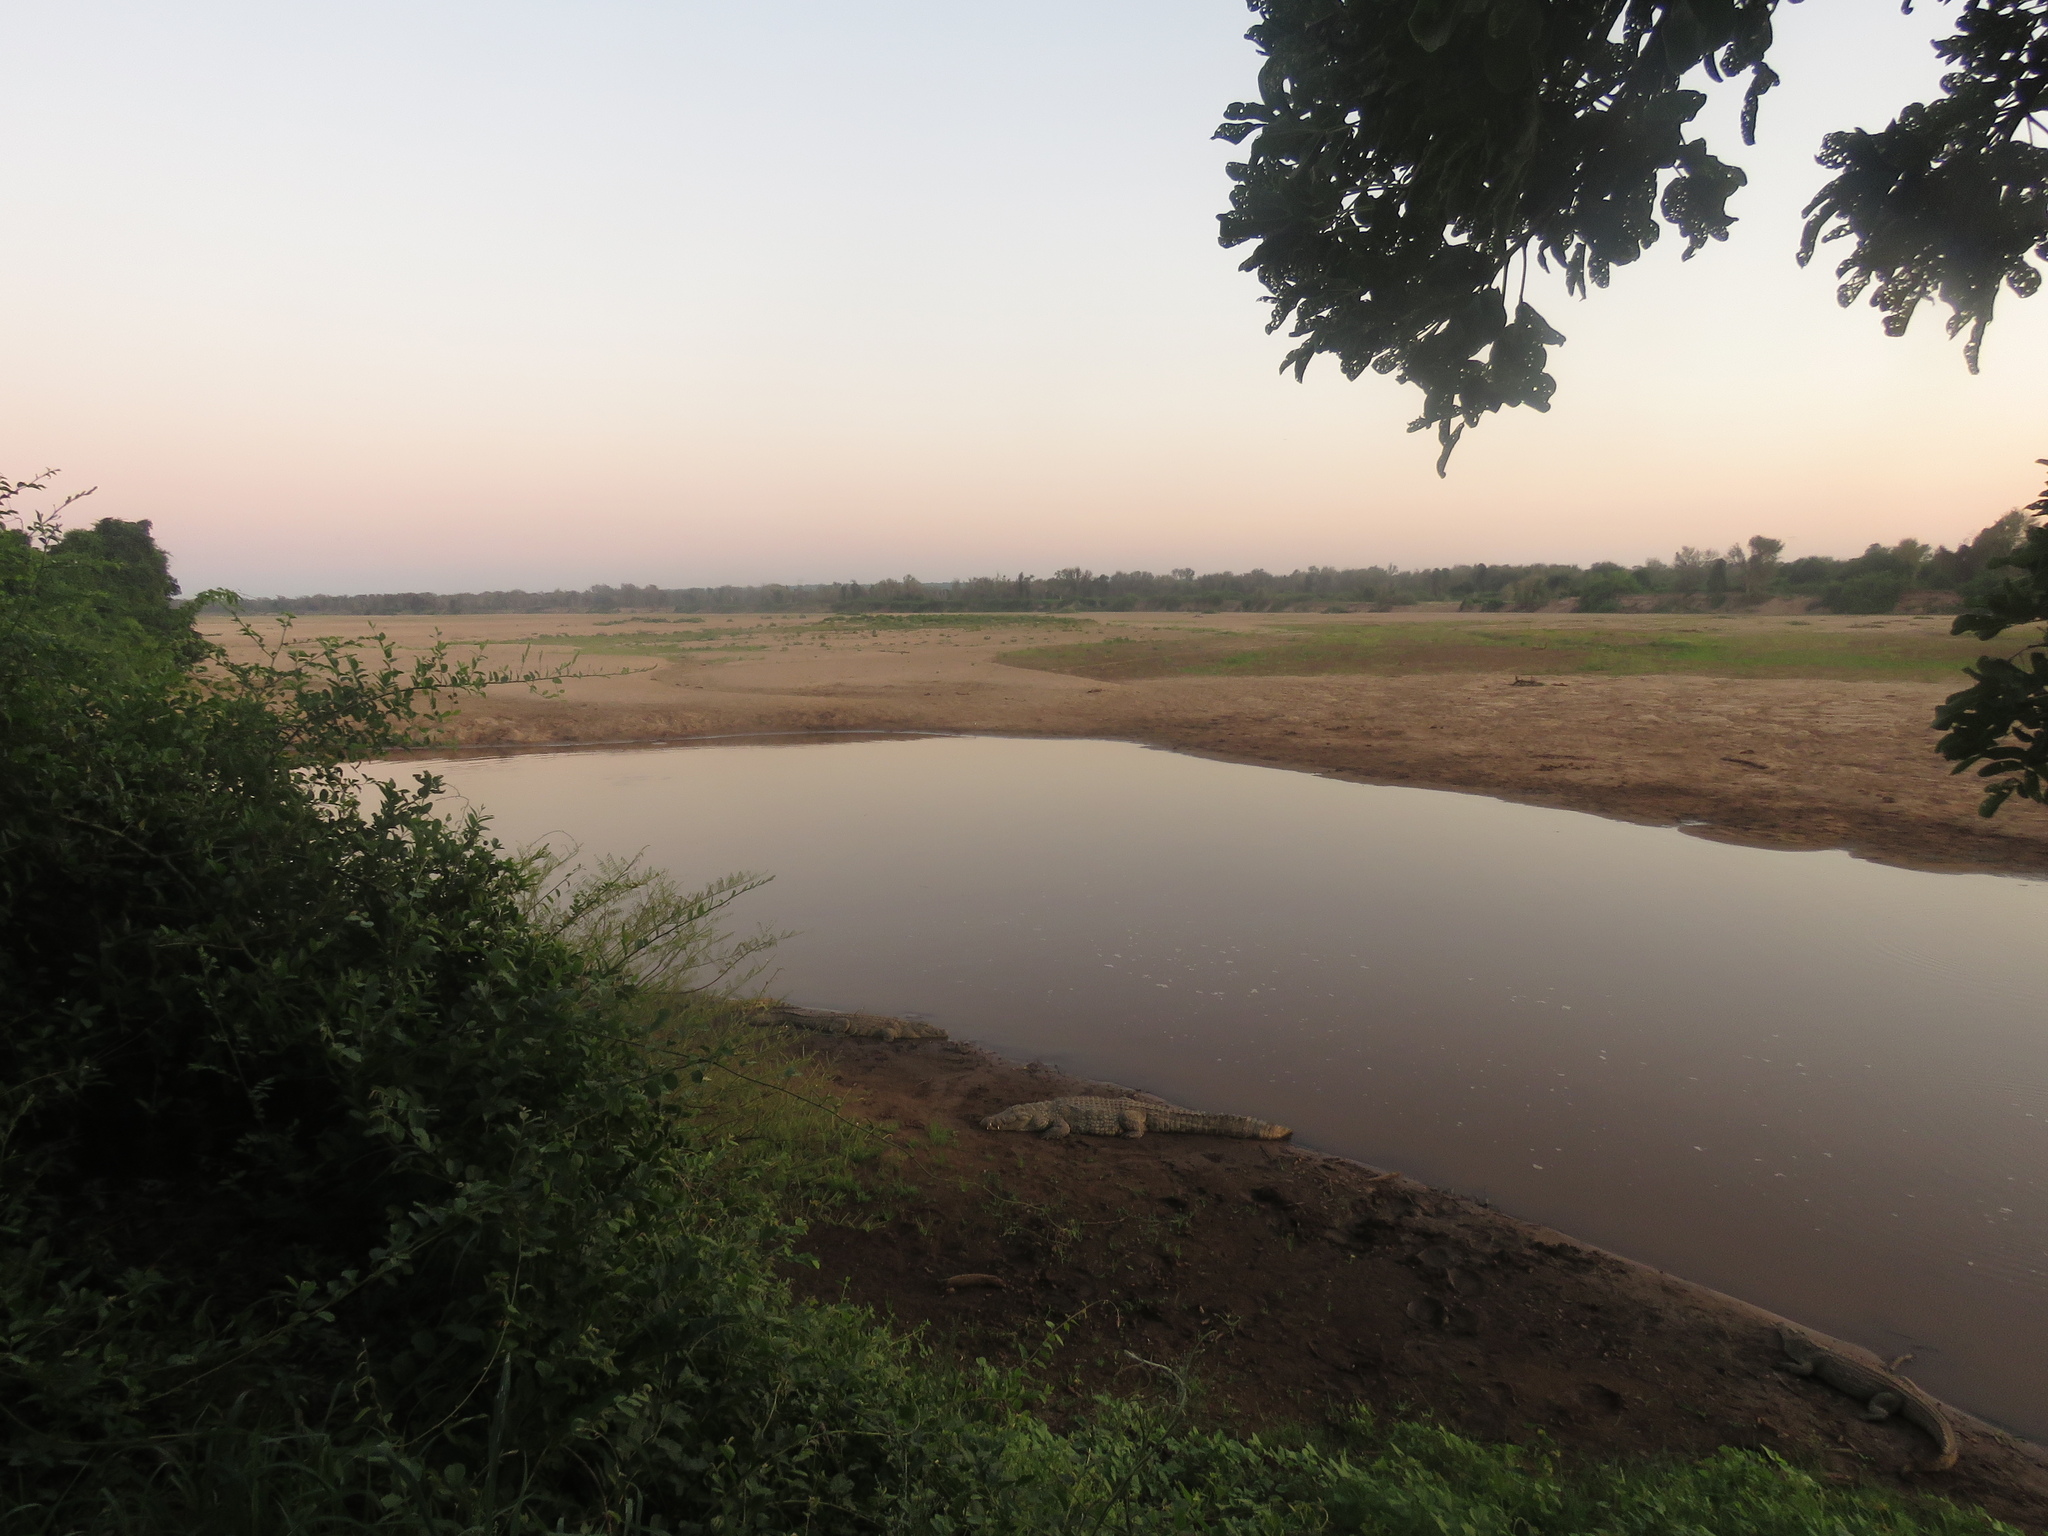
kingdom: Animalia
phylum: Chordata
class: Crocodylia
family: Crocodylidae
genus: Crocodylus
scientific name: Crocodylus niloticus
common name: Nile crocodile
